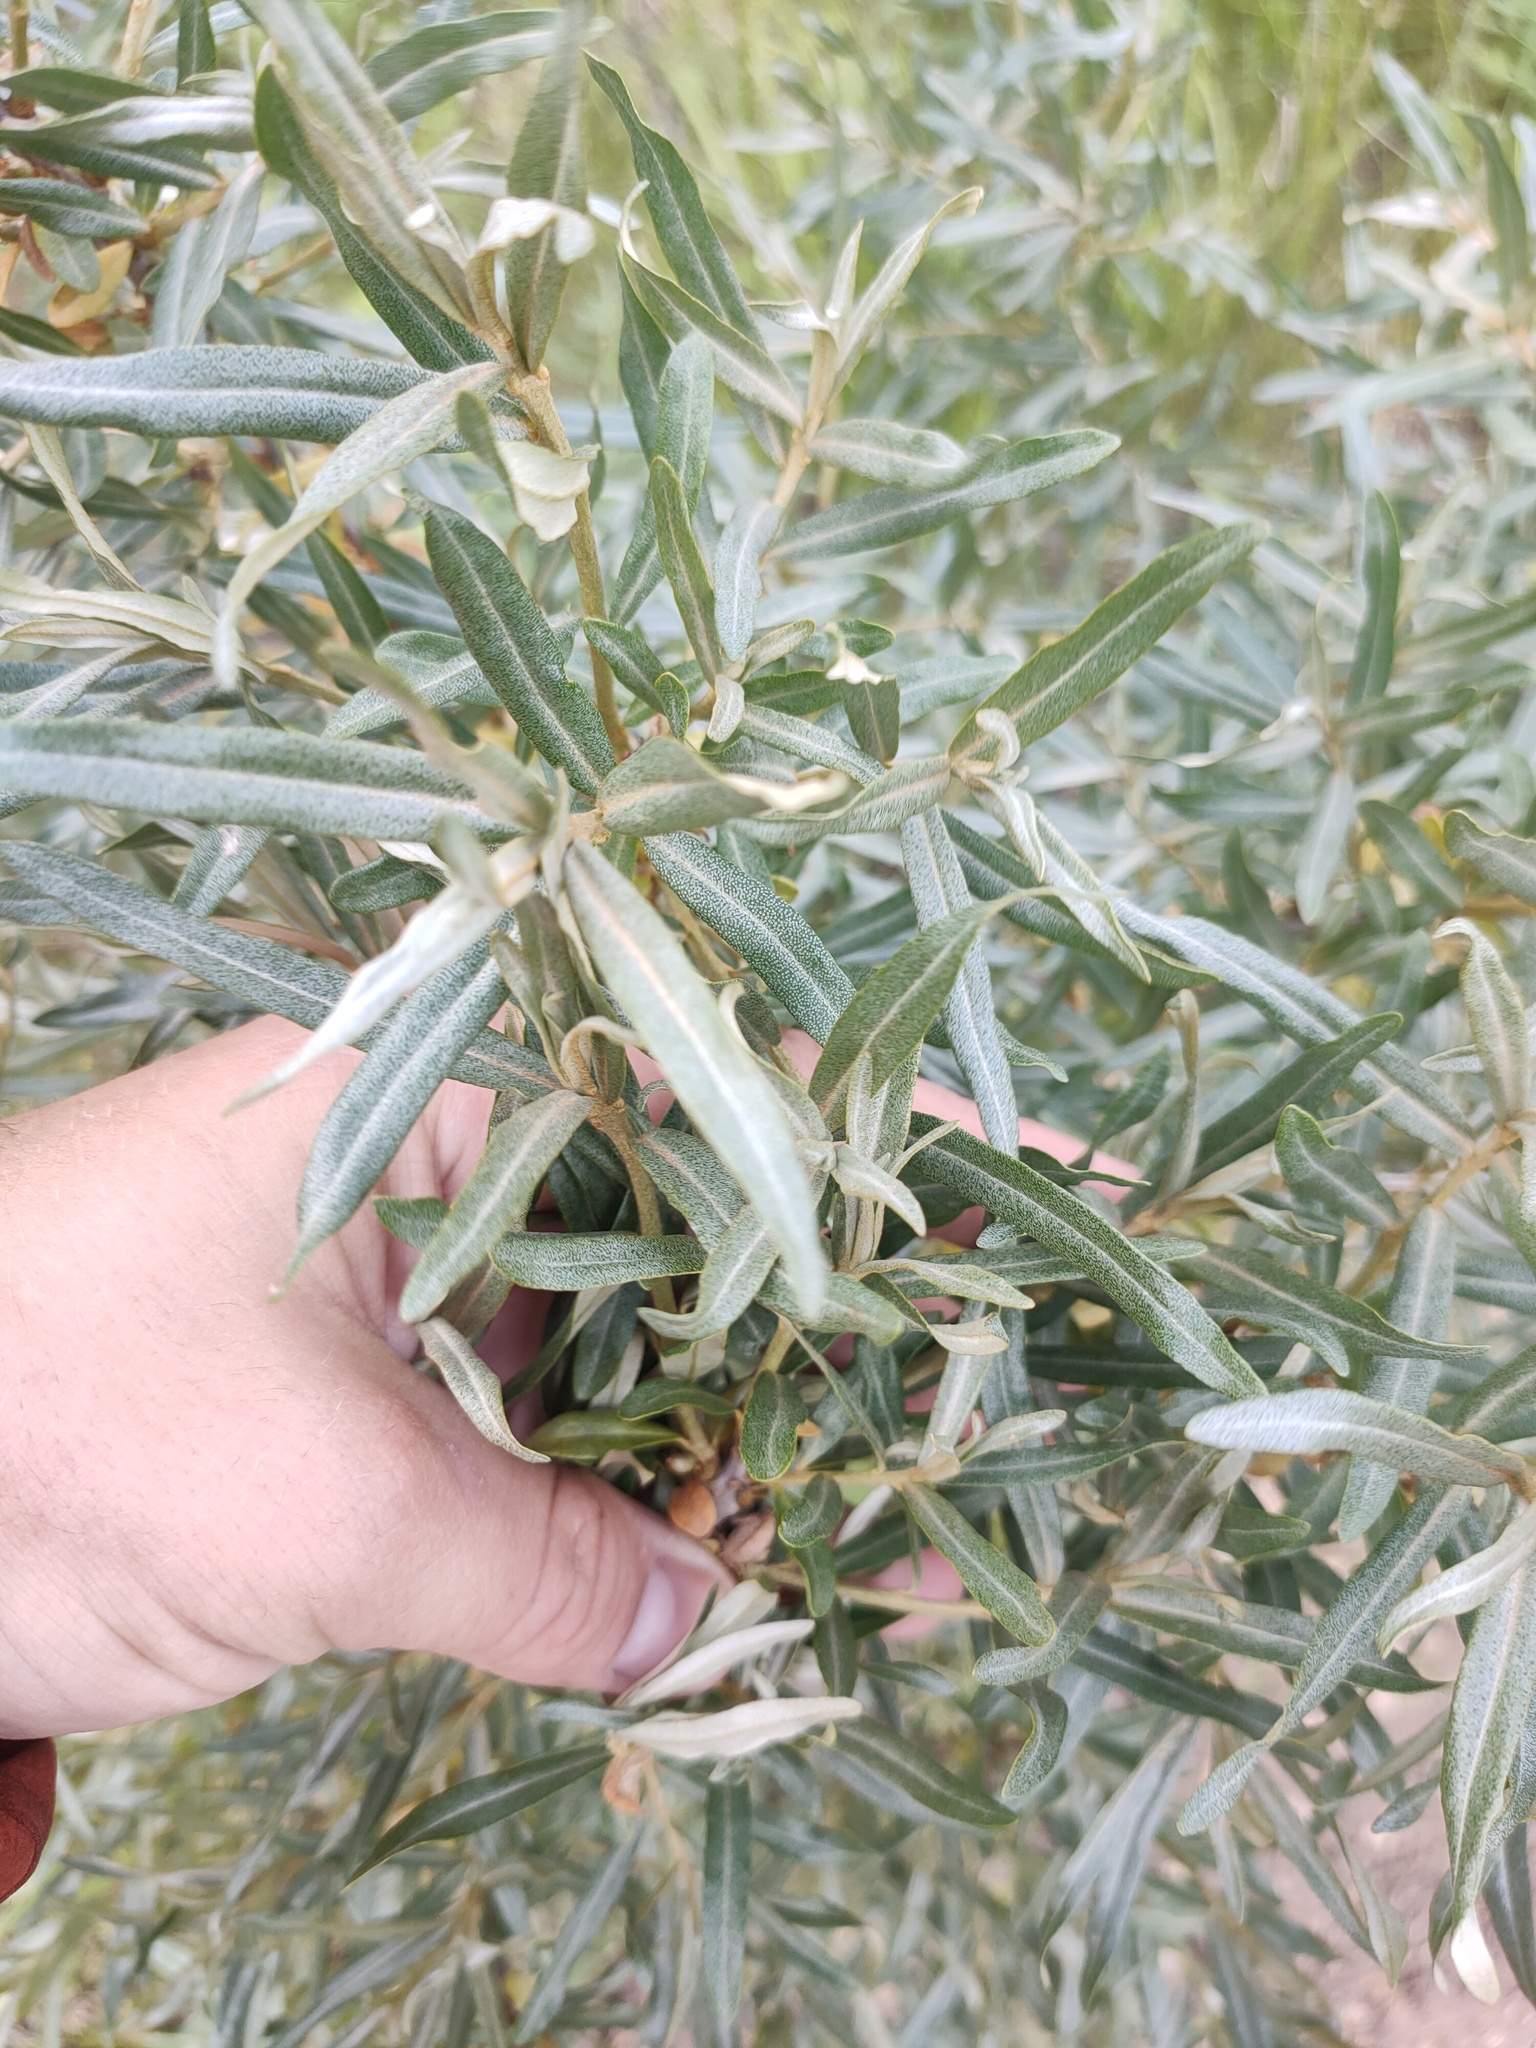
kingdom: Plantae
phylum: Tracheophyta
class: Magnoliopsida
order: Rosales
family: Elaeagnaceae
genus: Hippophae
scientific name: Hippophae rhamnoides
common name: Sea-buckthorn
